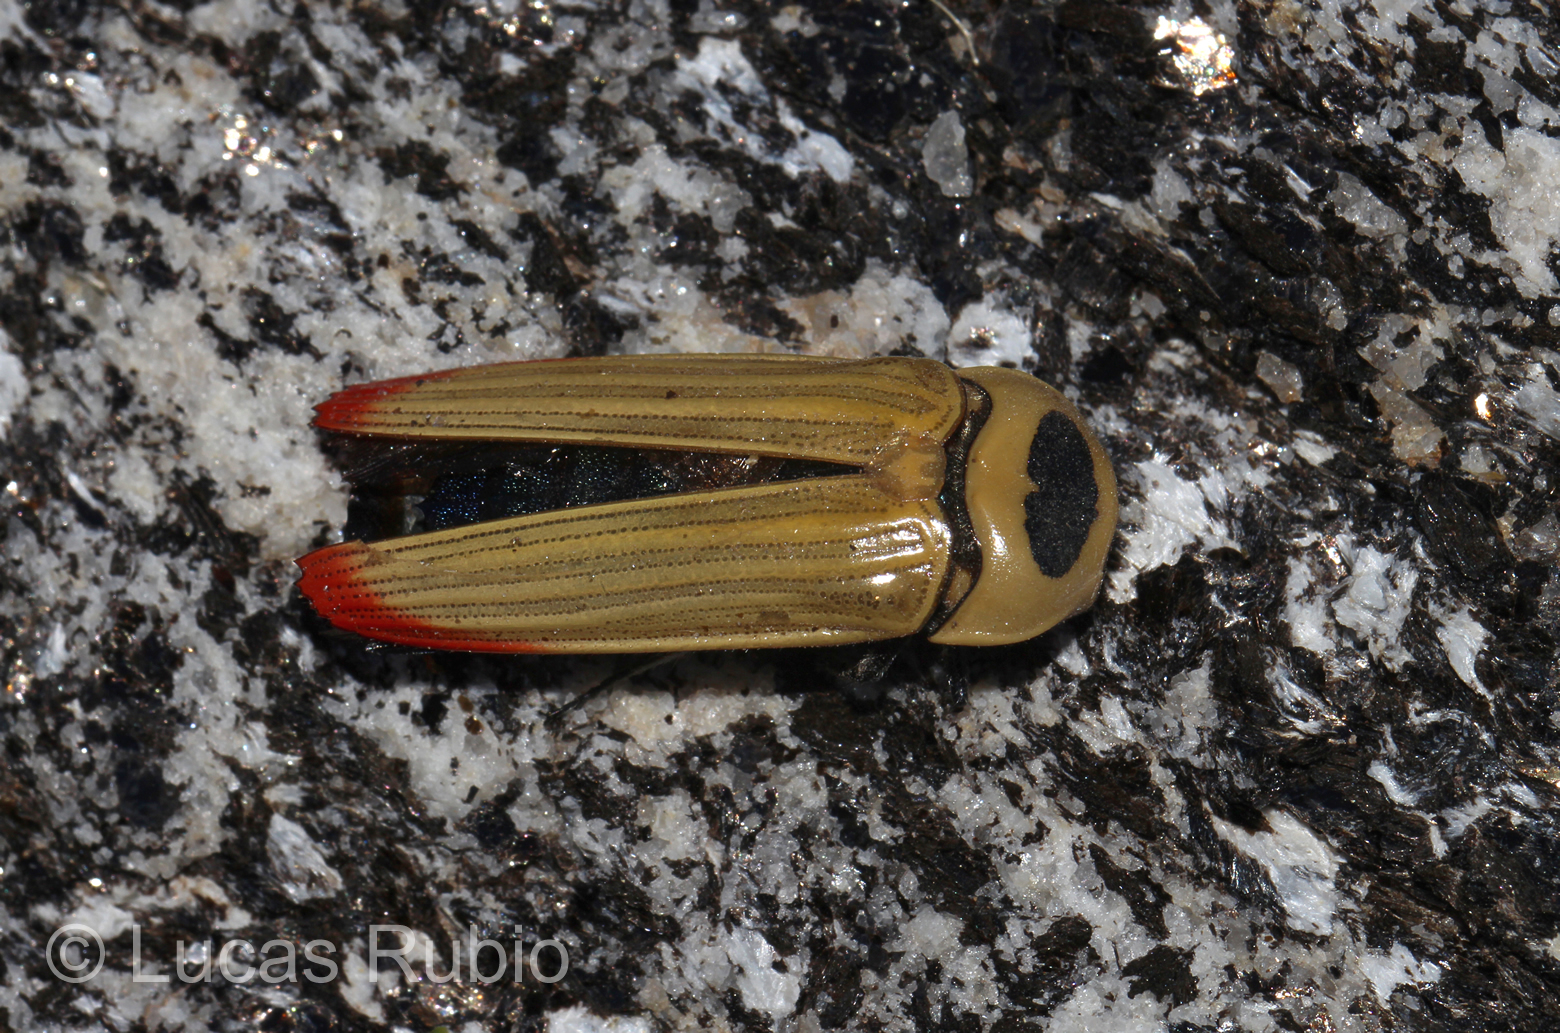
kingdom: Animalia
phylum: Arthropoda
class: Insecta
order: Coleoptera
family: Buprestidae
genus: Hiperantha
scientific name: Hiperantha theryi
